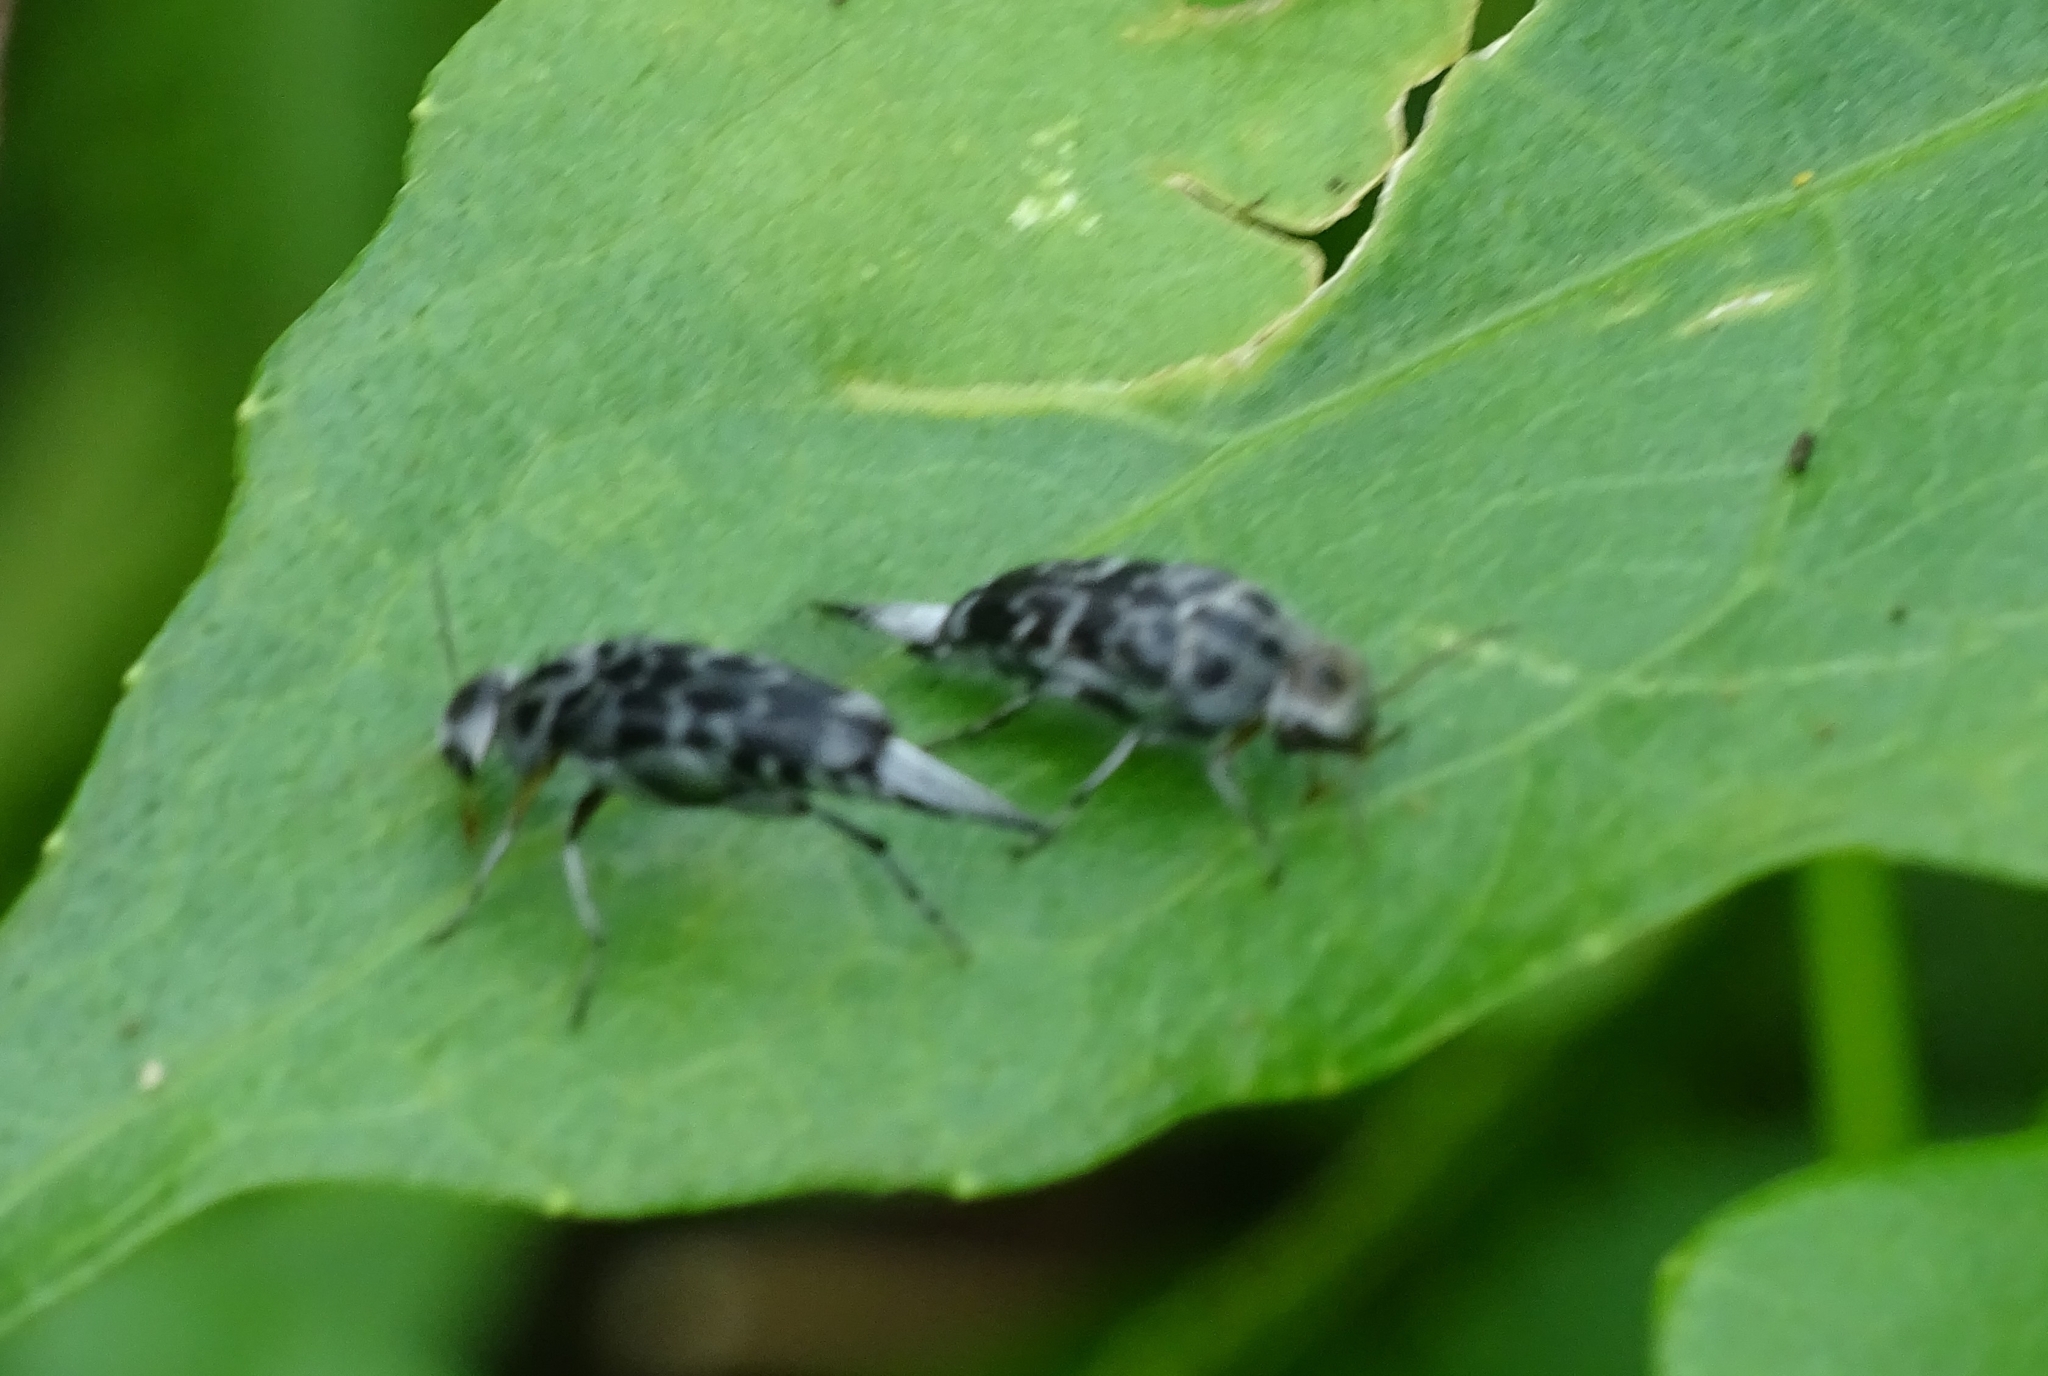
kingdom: Animalia
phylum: Arthropoda
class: Insecta
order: Coleoptera
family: Mordellidae
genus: Glipa
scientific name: Glipa
